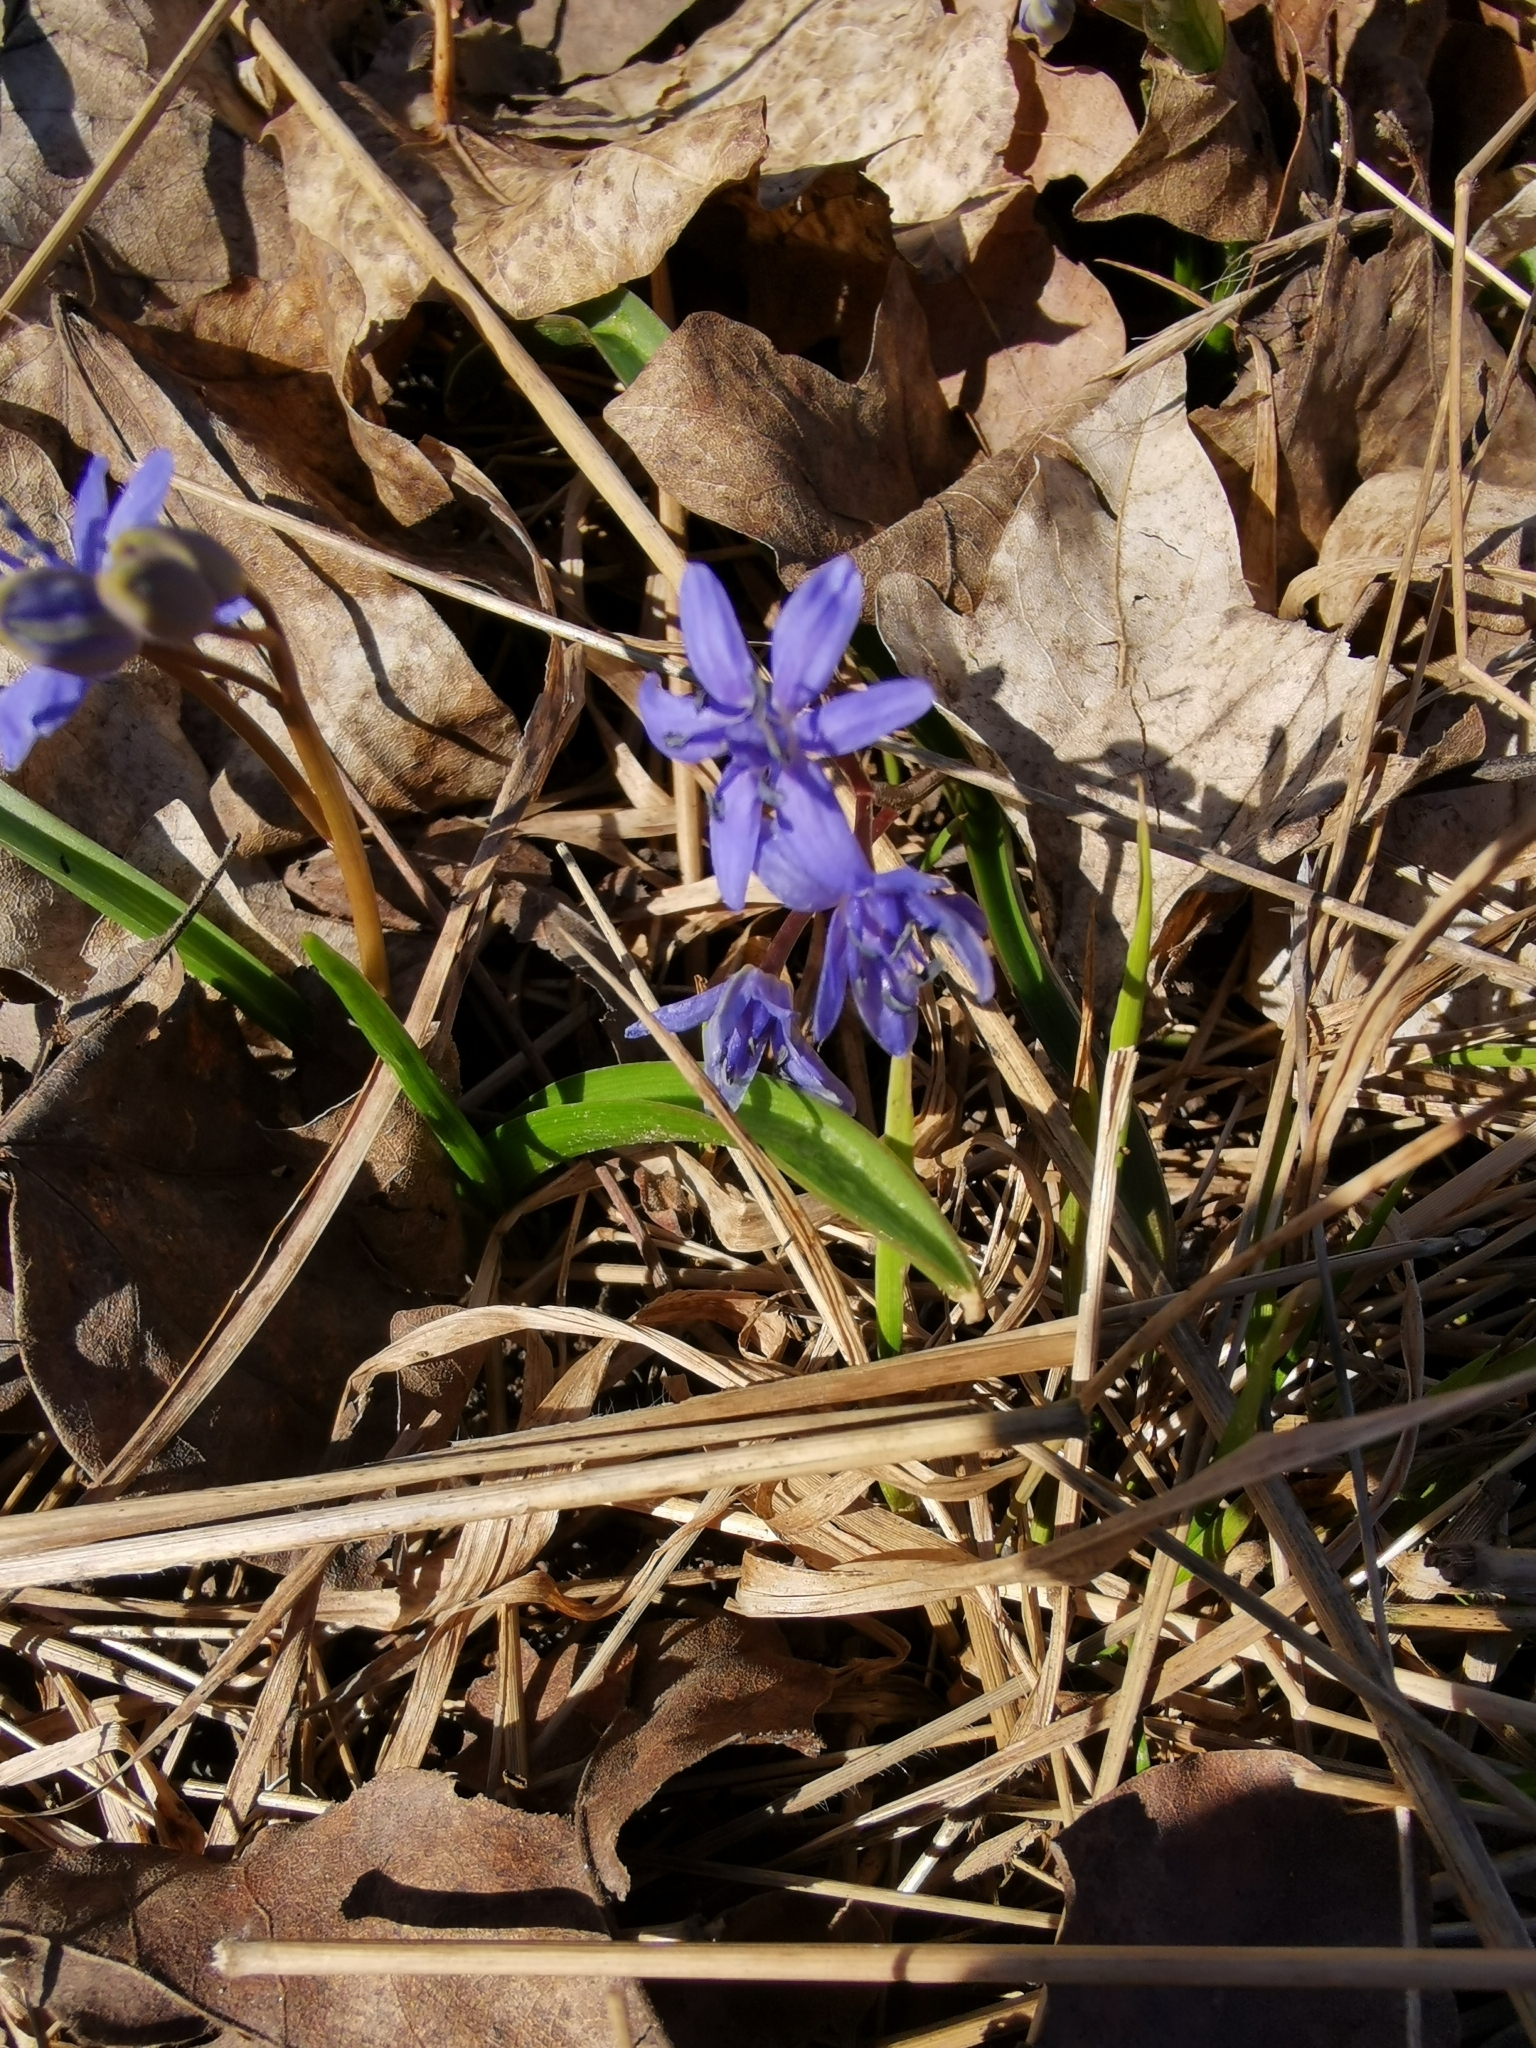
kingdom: Plantae
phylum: Tracheophyta
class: Liliopsida
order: Asparagales
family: Asparagaceae
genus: Scilla
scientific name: Scilla vindobonensis
